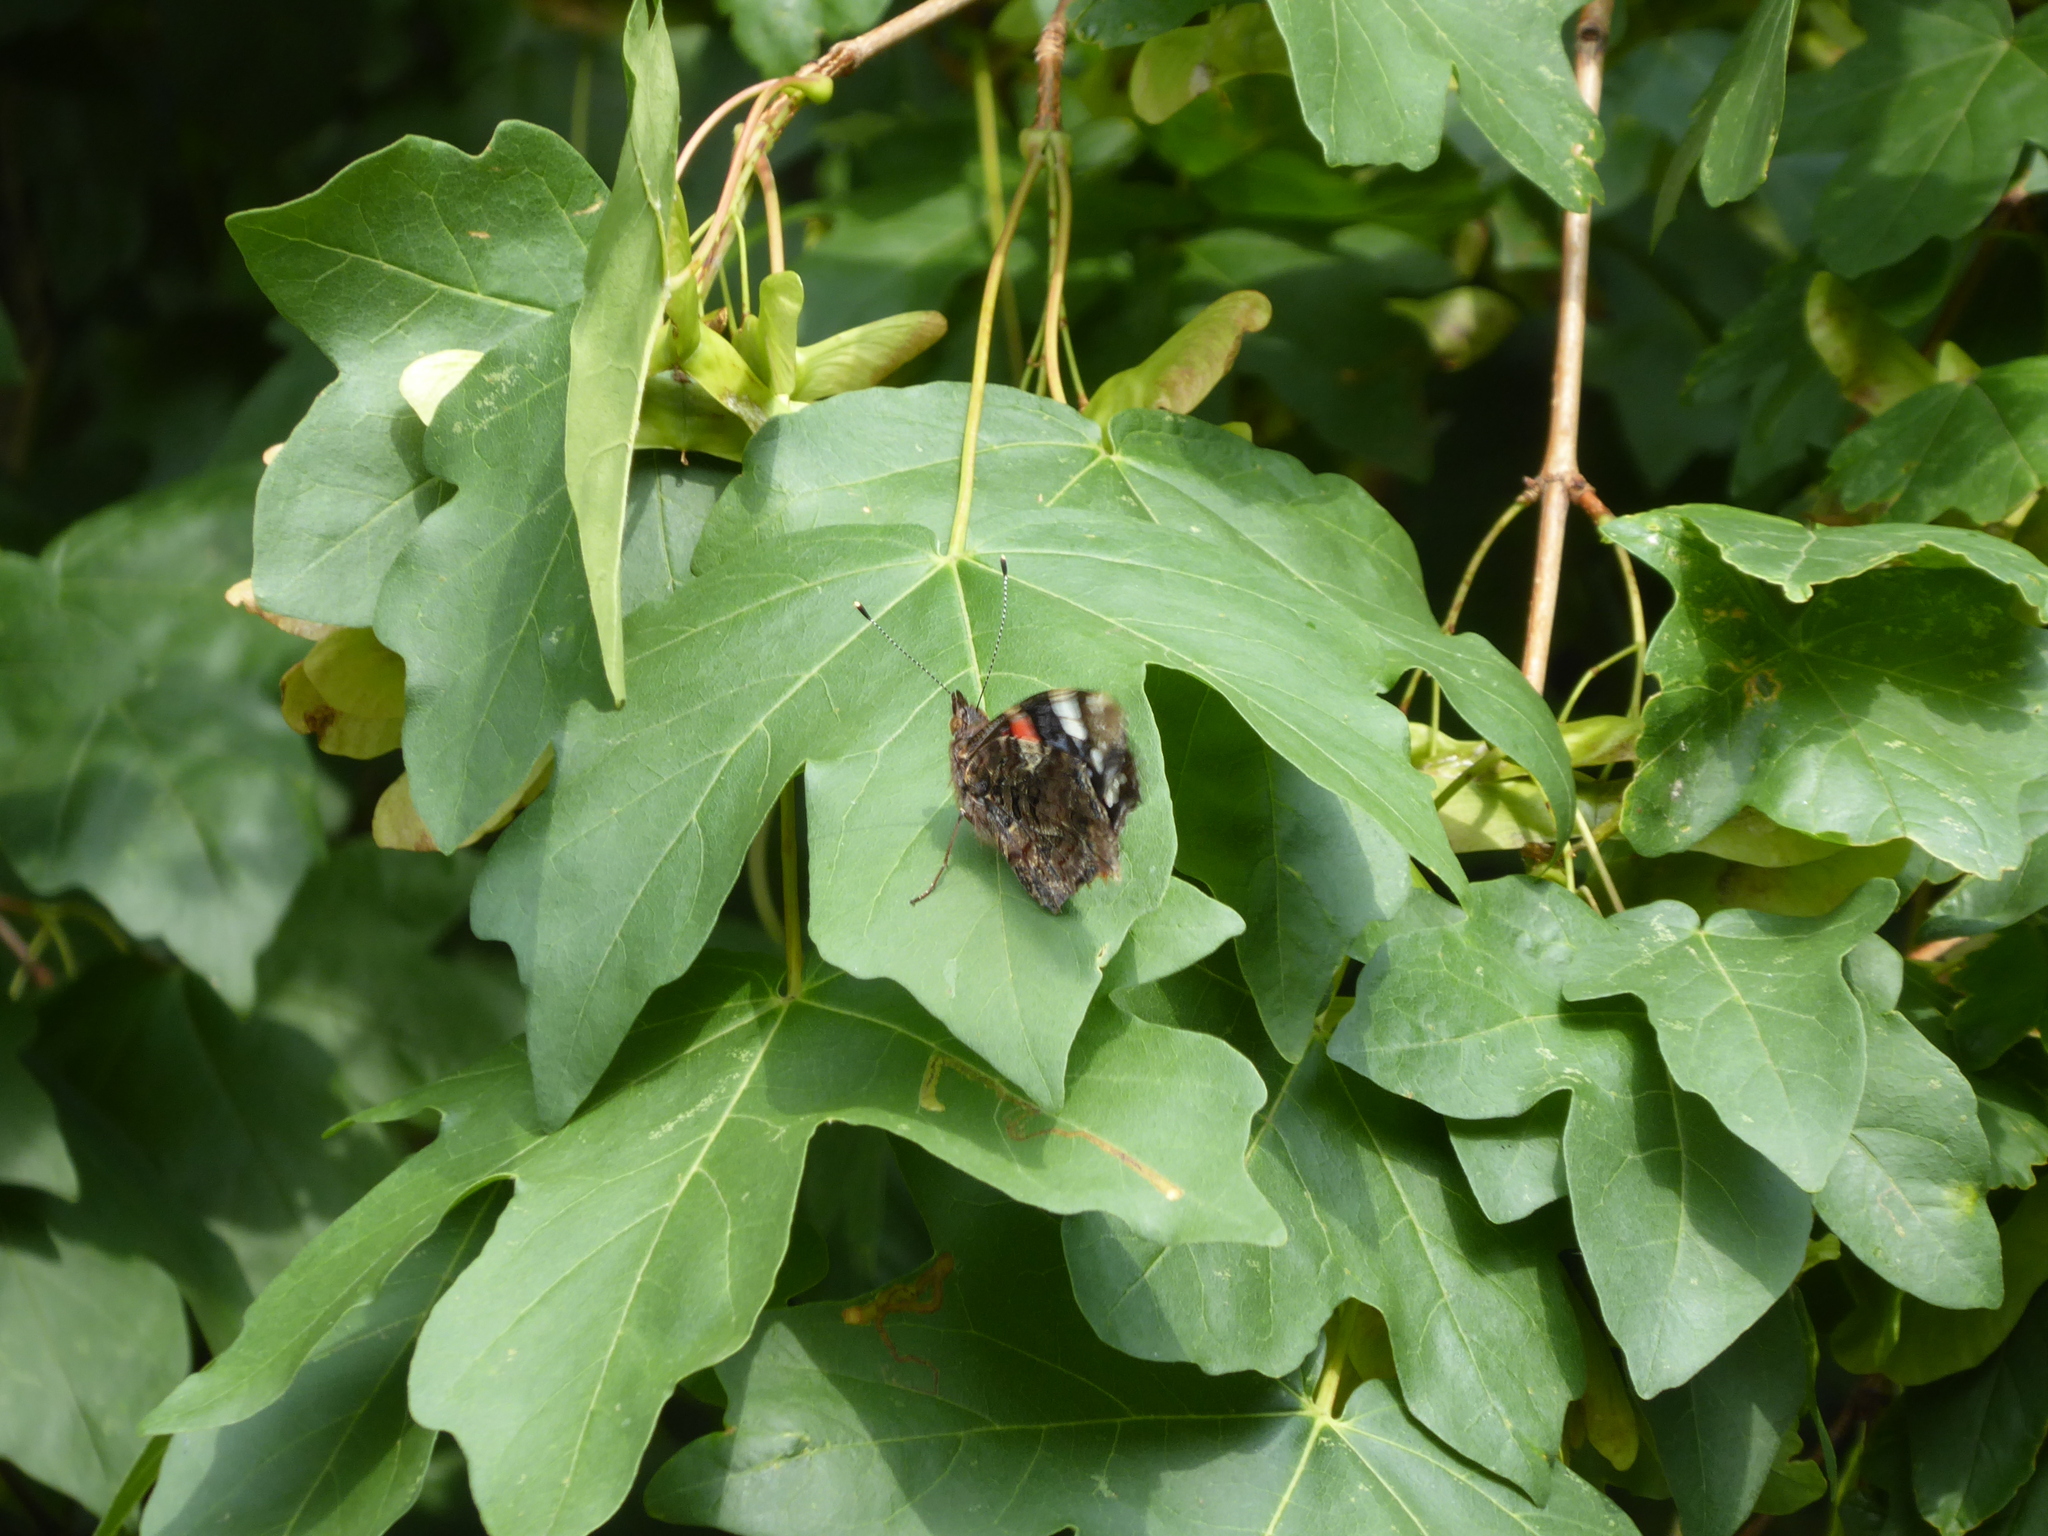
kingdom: Animalia
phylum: Arthropoda
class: Insecta
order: Lepidoptera
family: Nymphalidae
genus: Vanessa
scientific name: Vanessa atalanta
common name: Red admiral
